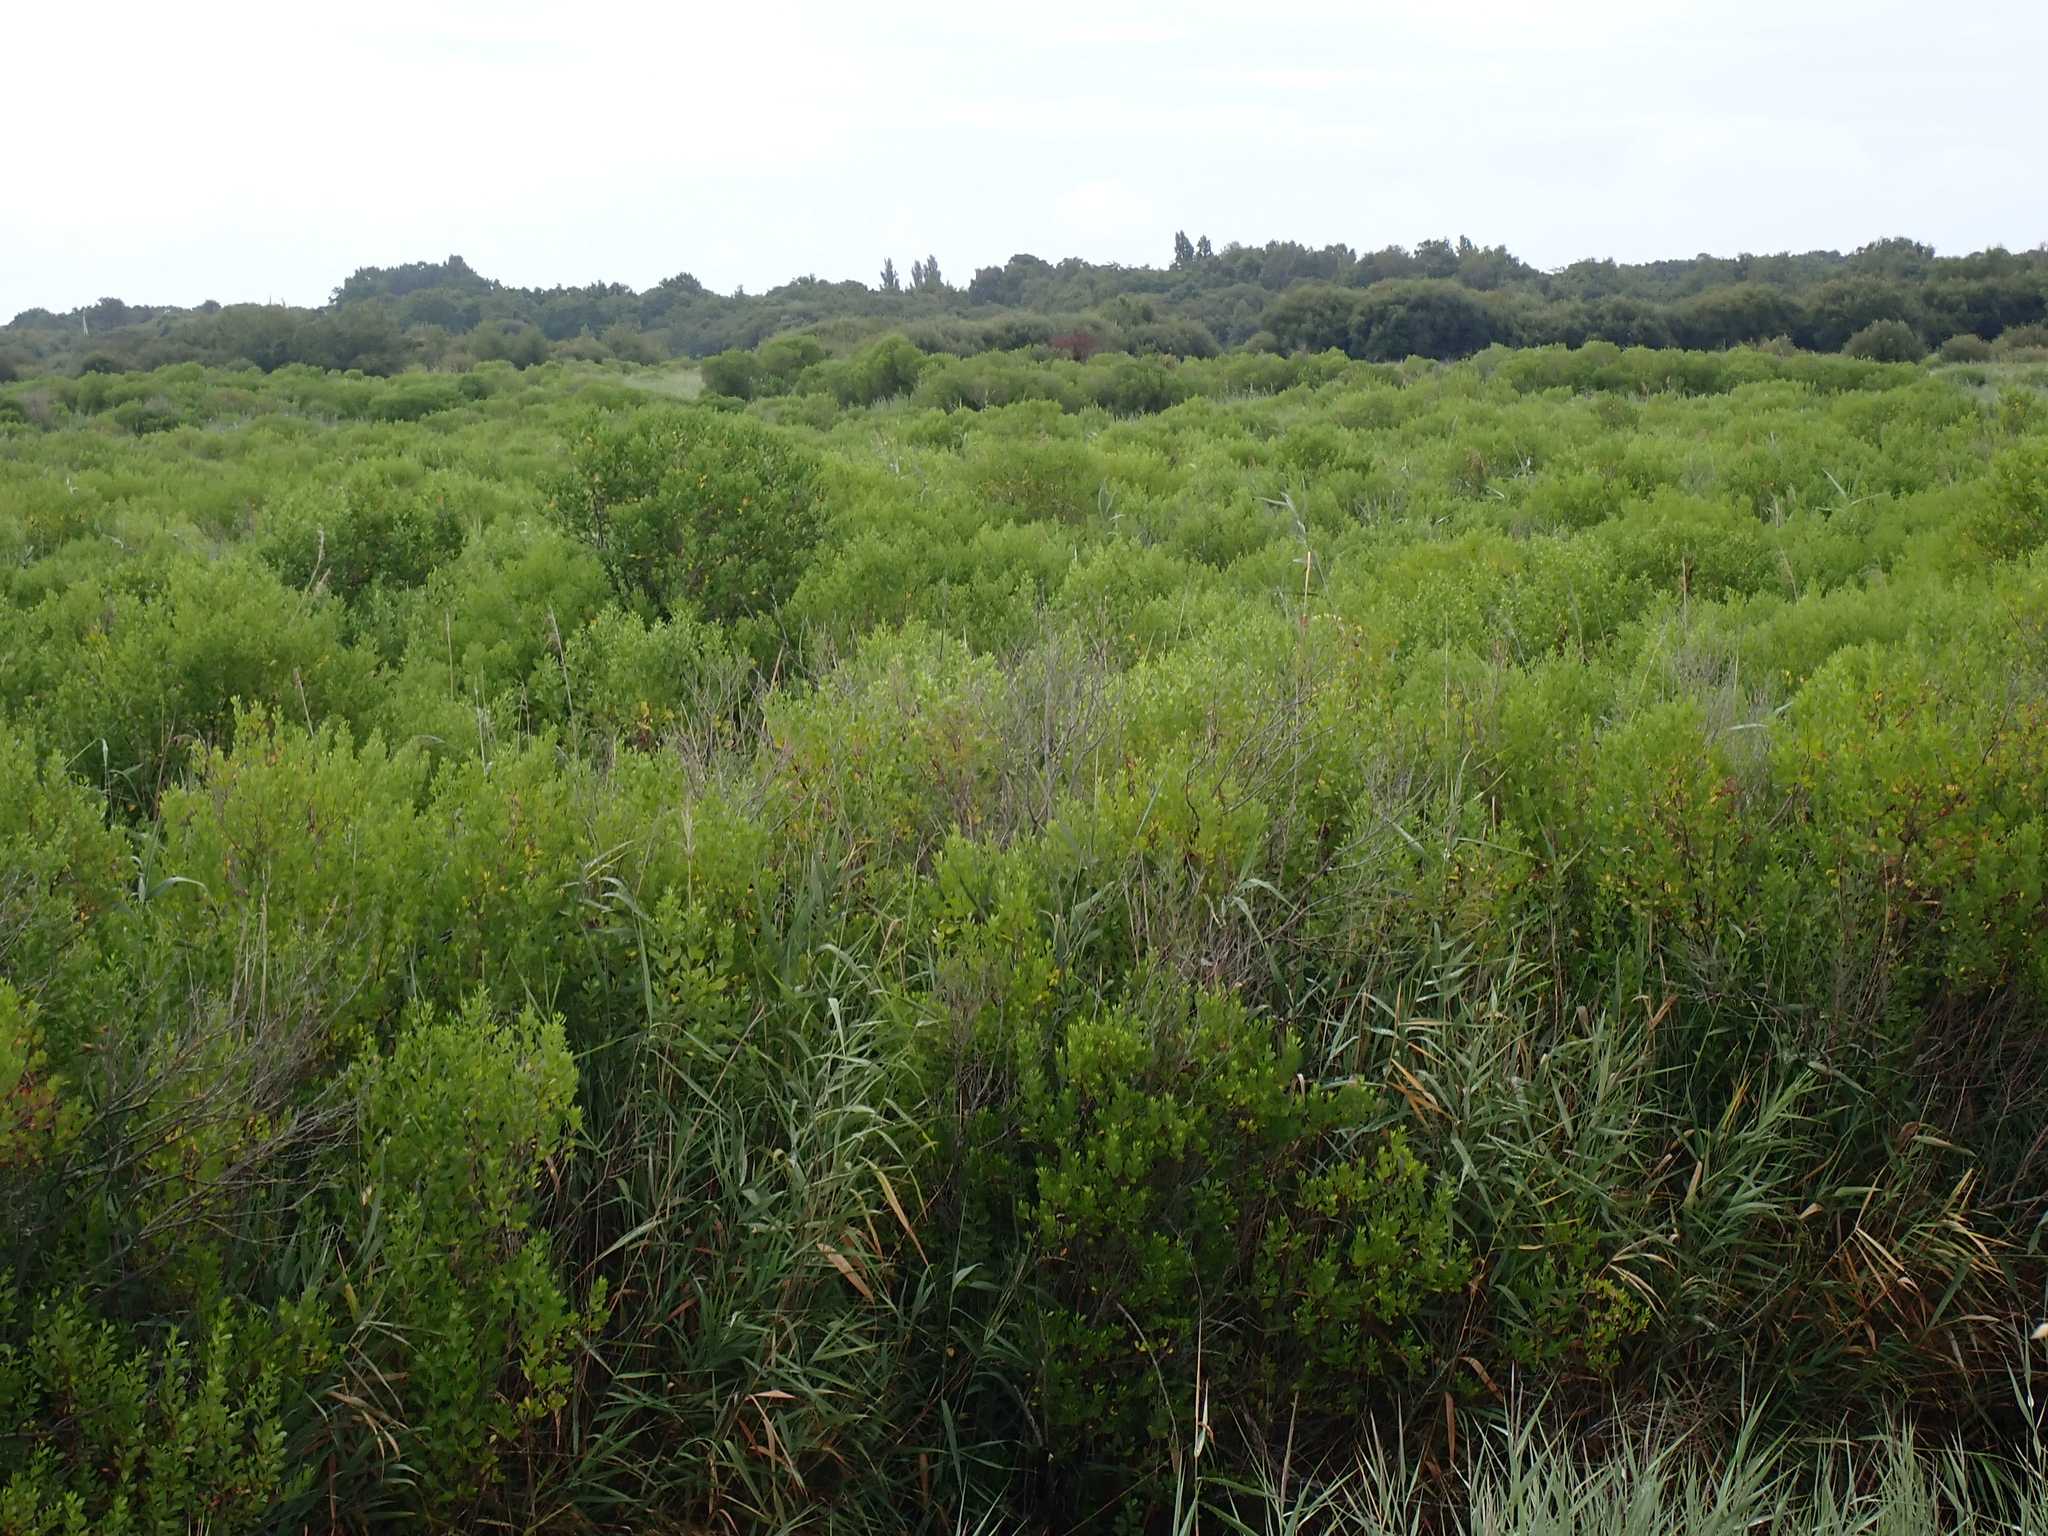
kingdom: Plantae
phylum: Tracheophyta
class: Magnoliopsida
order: Asterales
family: Asteraceae
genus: Baccharis
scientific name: Baccharis halimifolia
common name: Eastern baccharis
